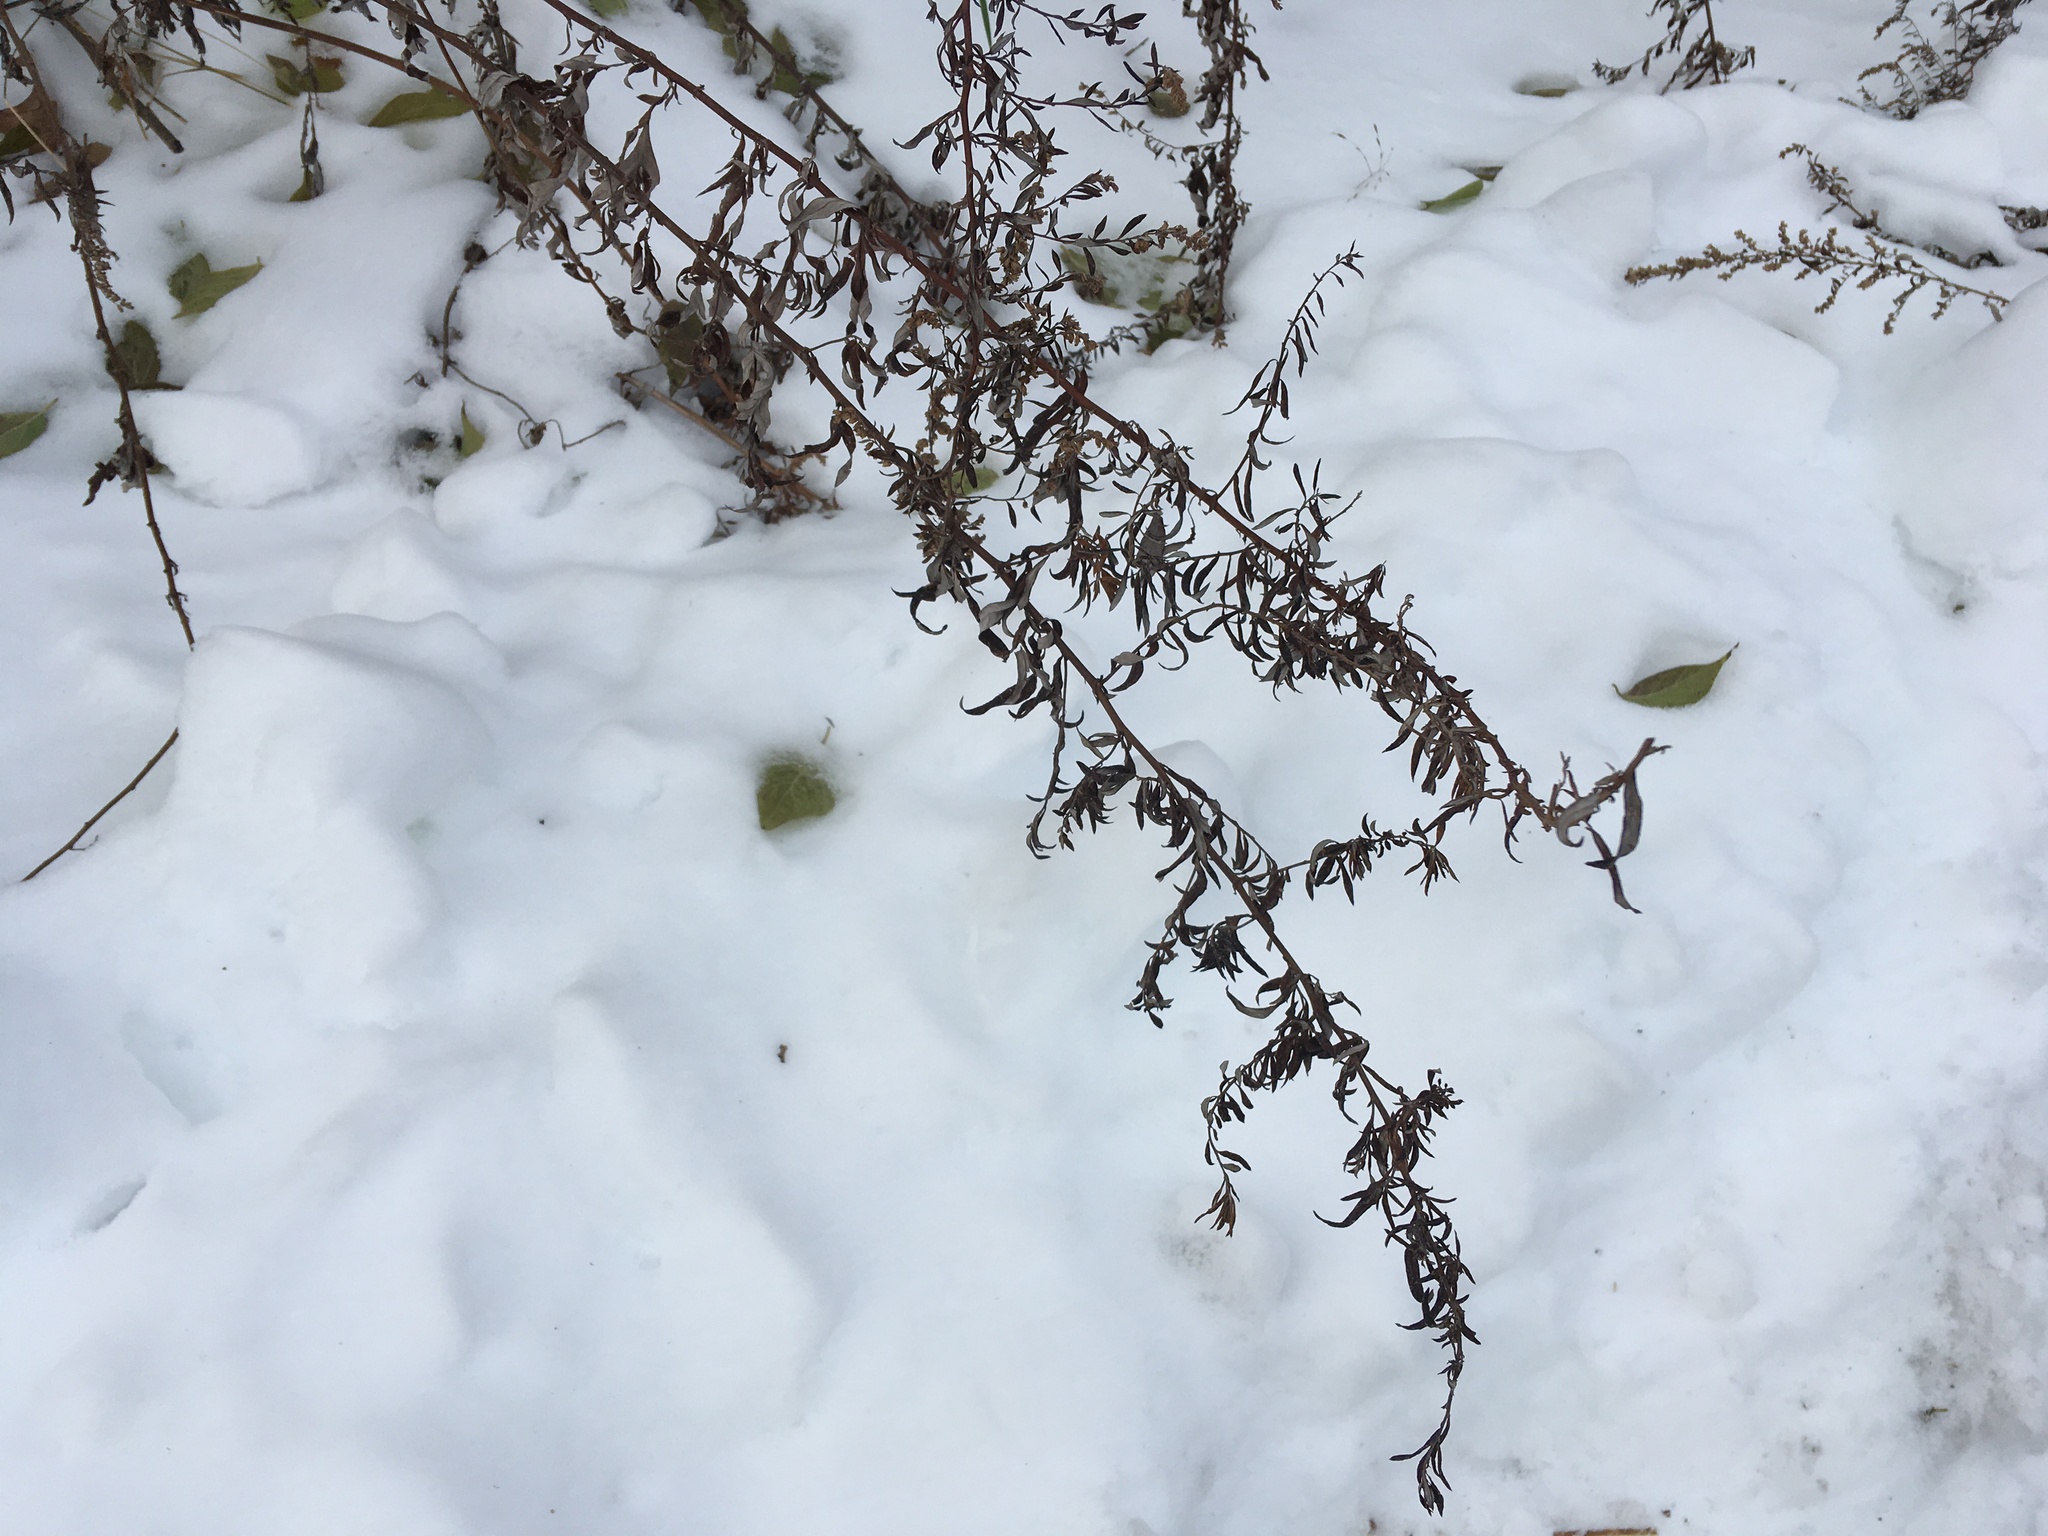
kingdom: Plantae
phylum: Tracheophyta
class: Magnoliopsida
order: Asterales
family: Asteraceae
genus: Artemisia
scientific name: Artemisia vulgaris
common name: Mugwort
